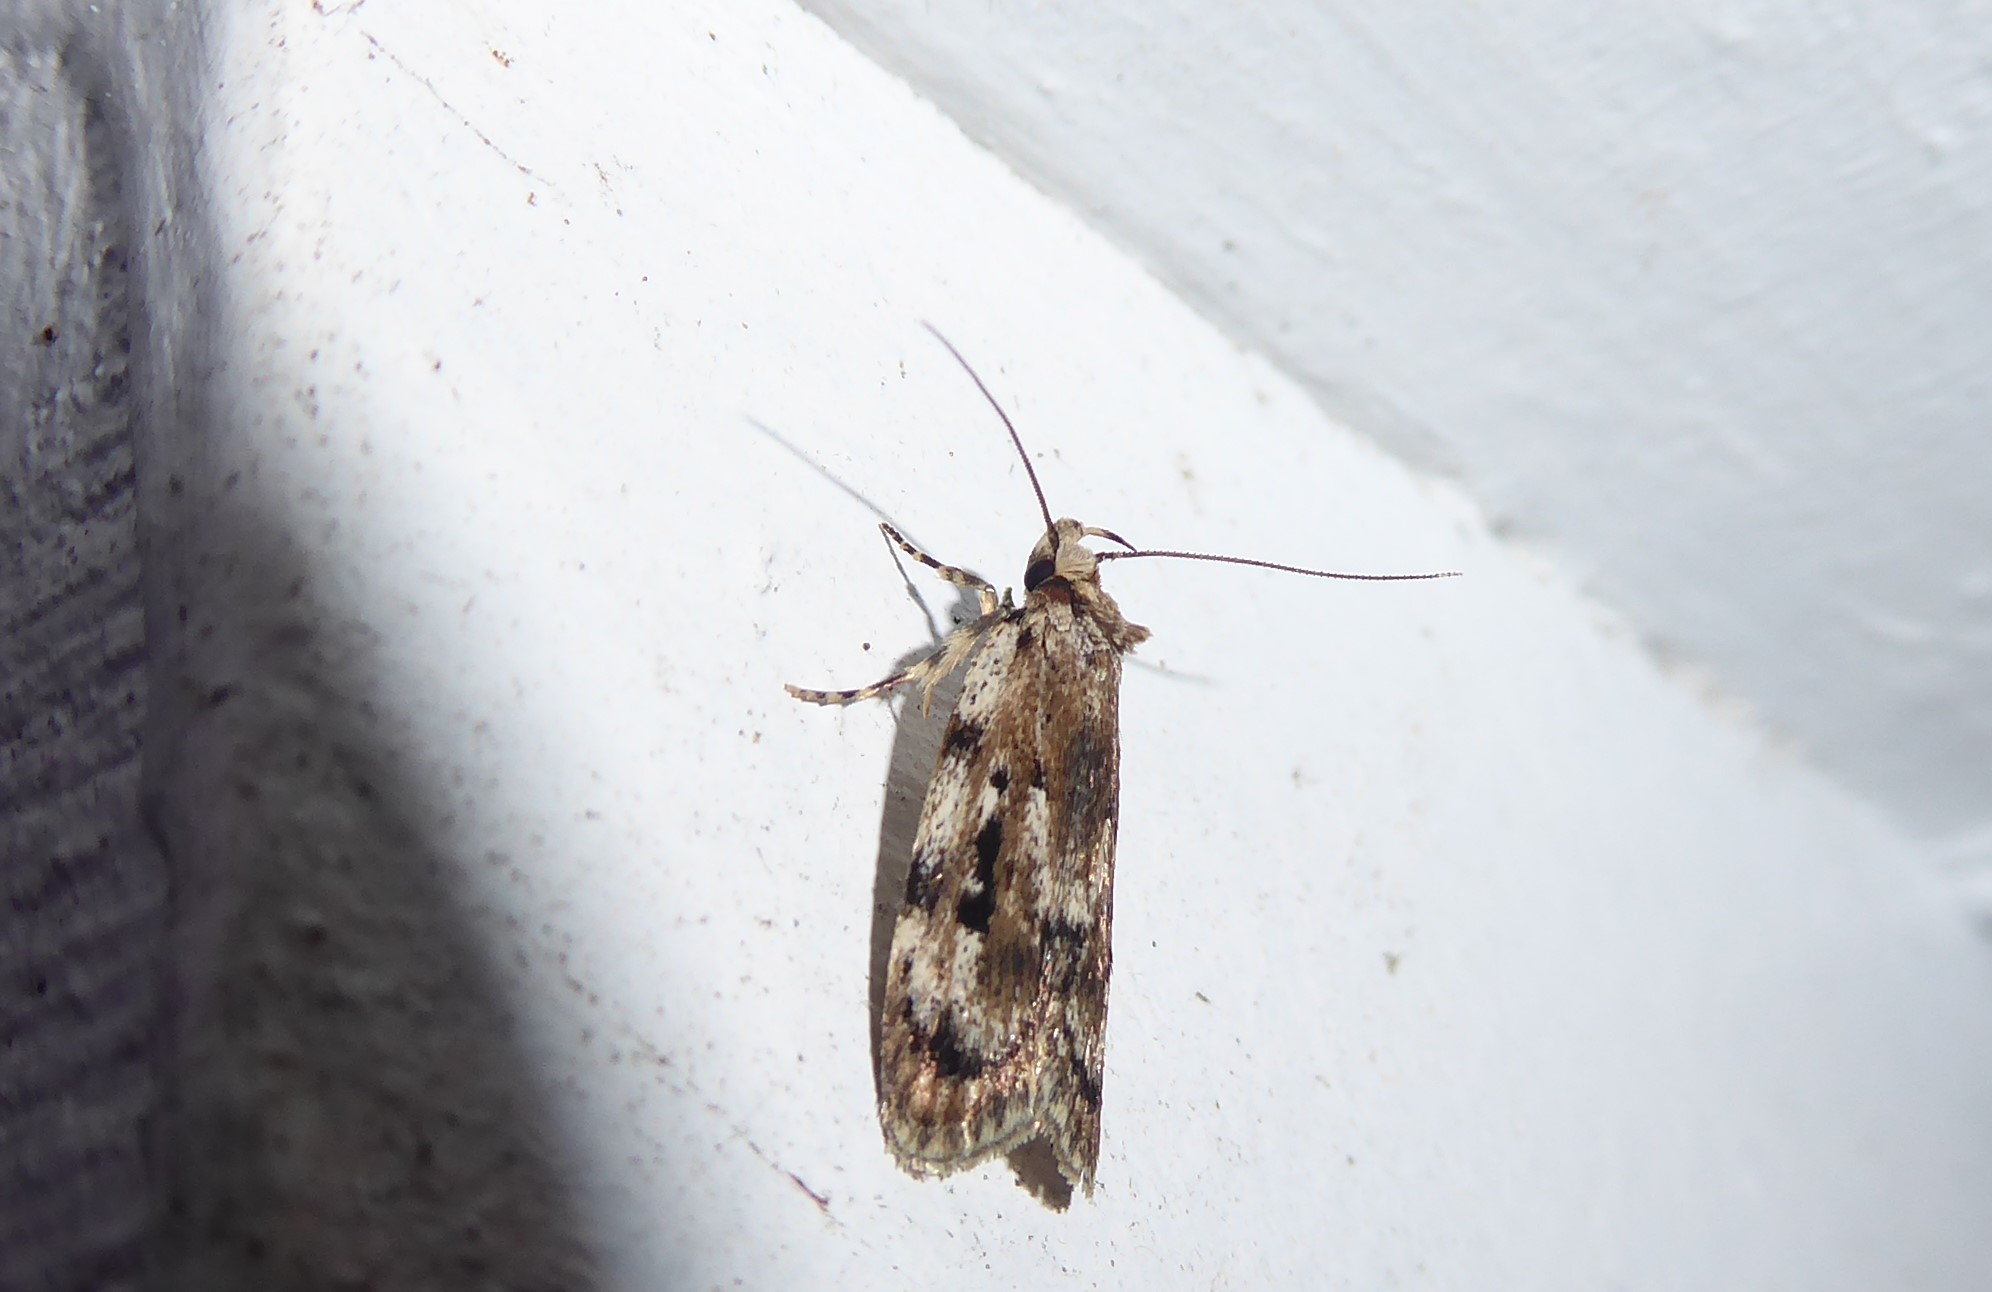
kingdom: Animalia
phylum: Arthropoda
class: Insecta
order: Lepidoptera
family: Oecophoridae
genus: Barea
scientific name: Barea exarcha
